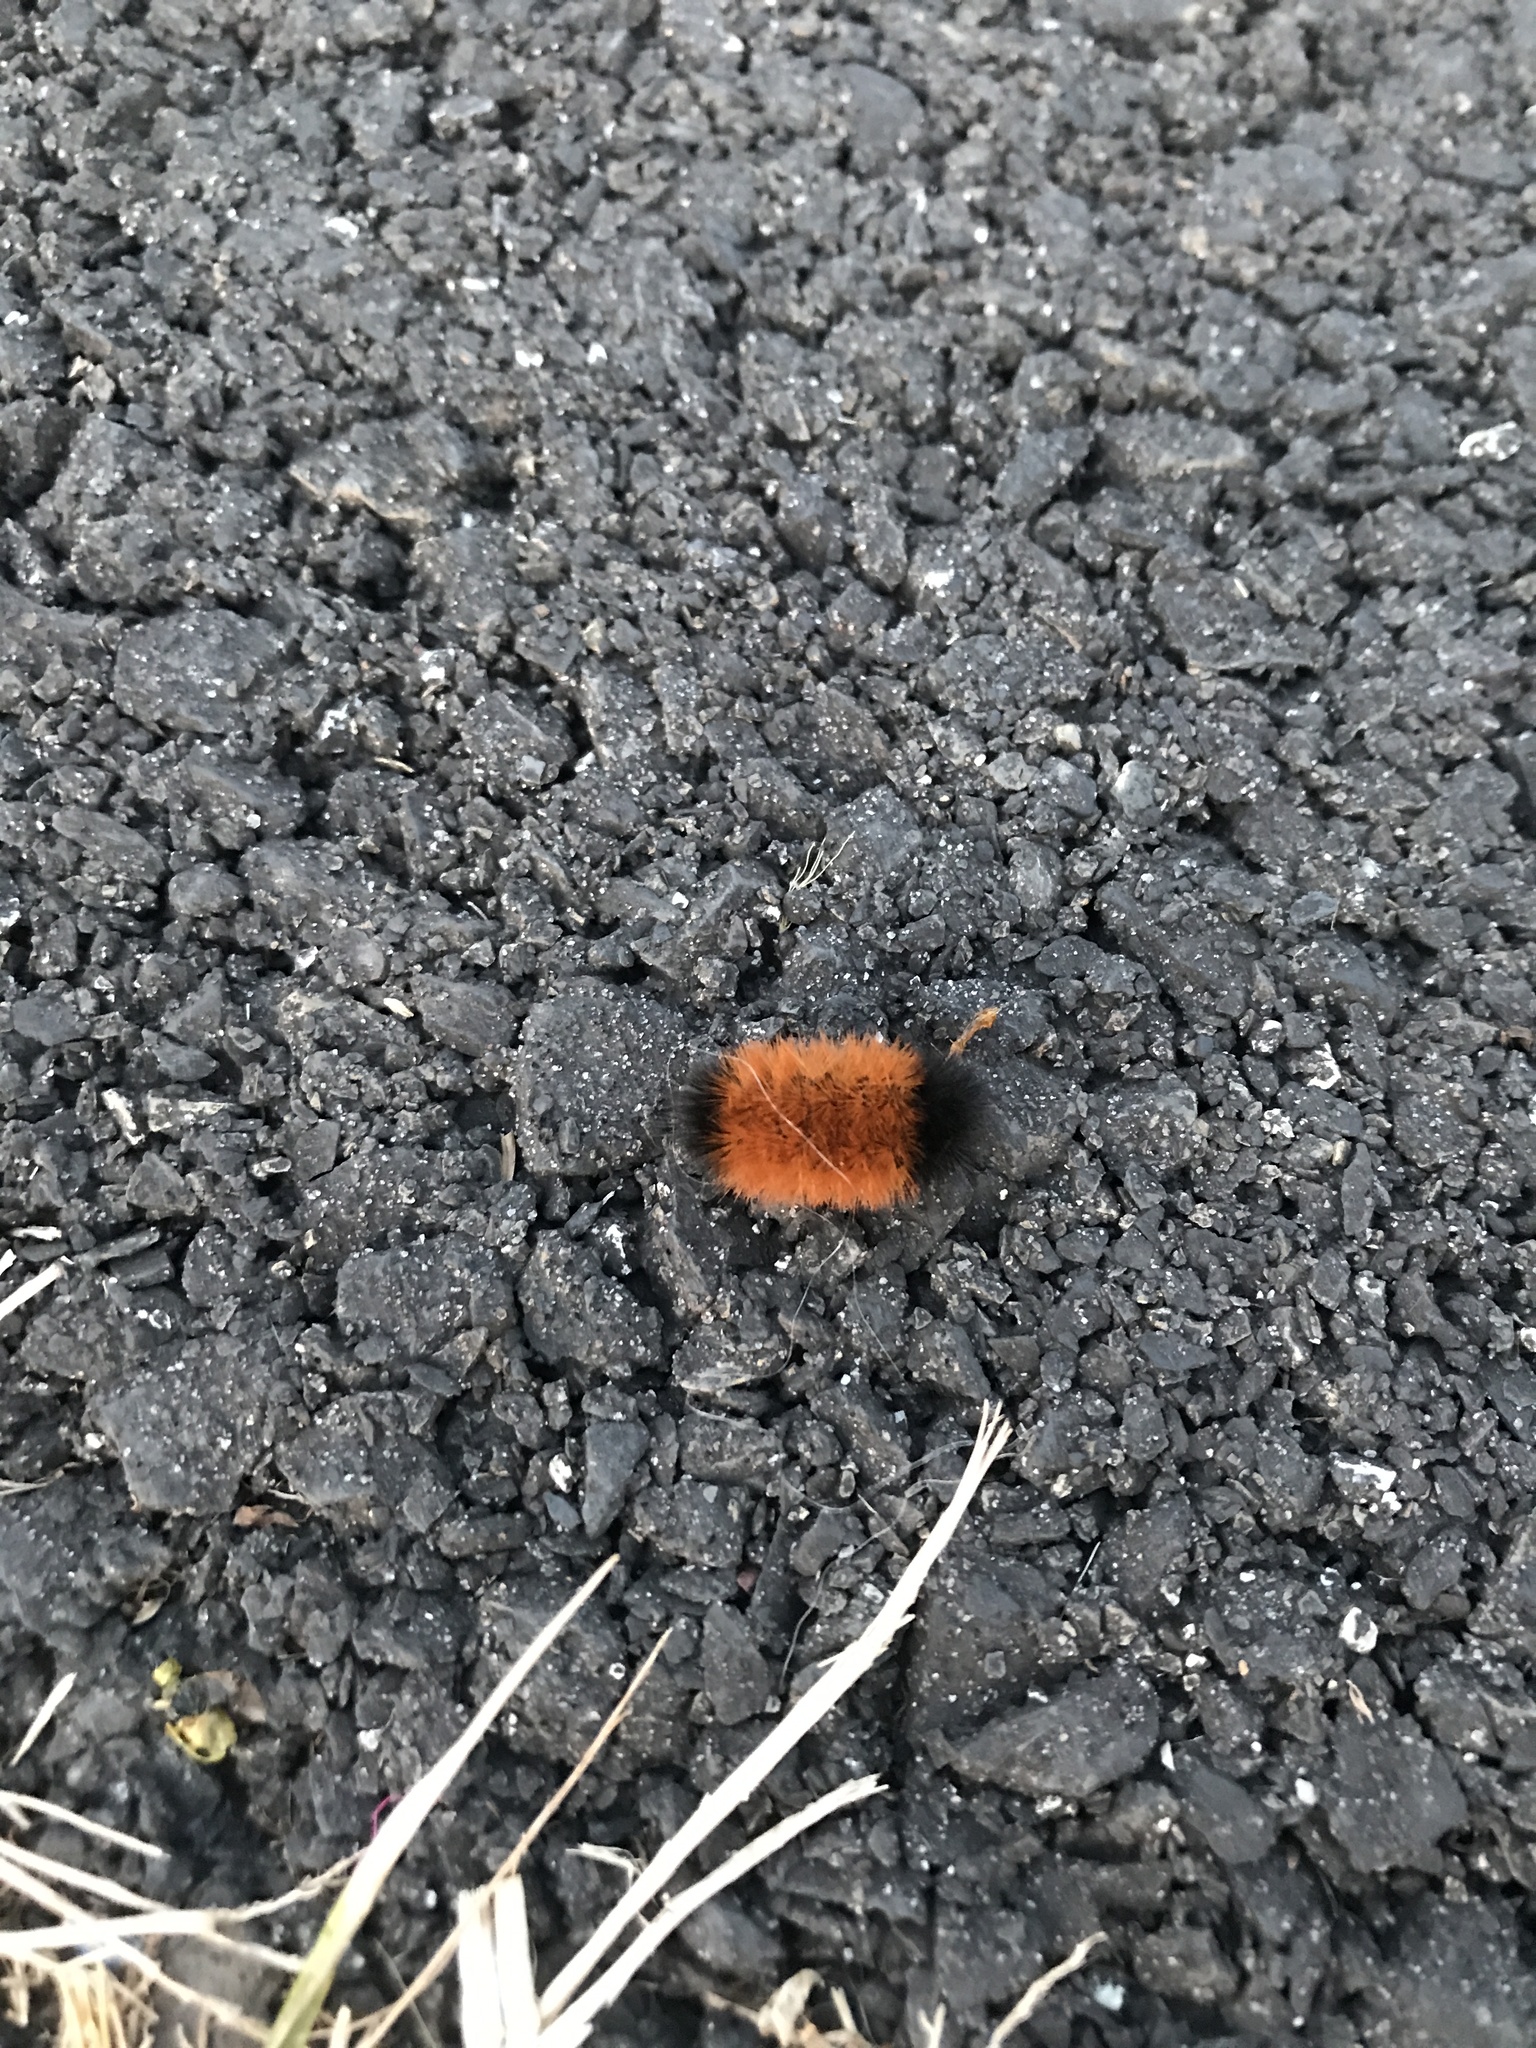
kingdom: Animalia
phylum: Arthropoda
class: Insecta
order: Lepidoptera
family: Erebidae
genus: Pyrrharctia
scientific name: Pyrrharctia isabella
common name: Isabella tiger moth
